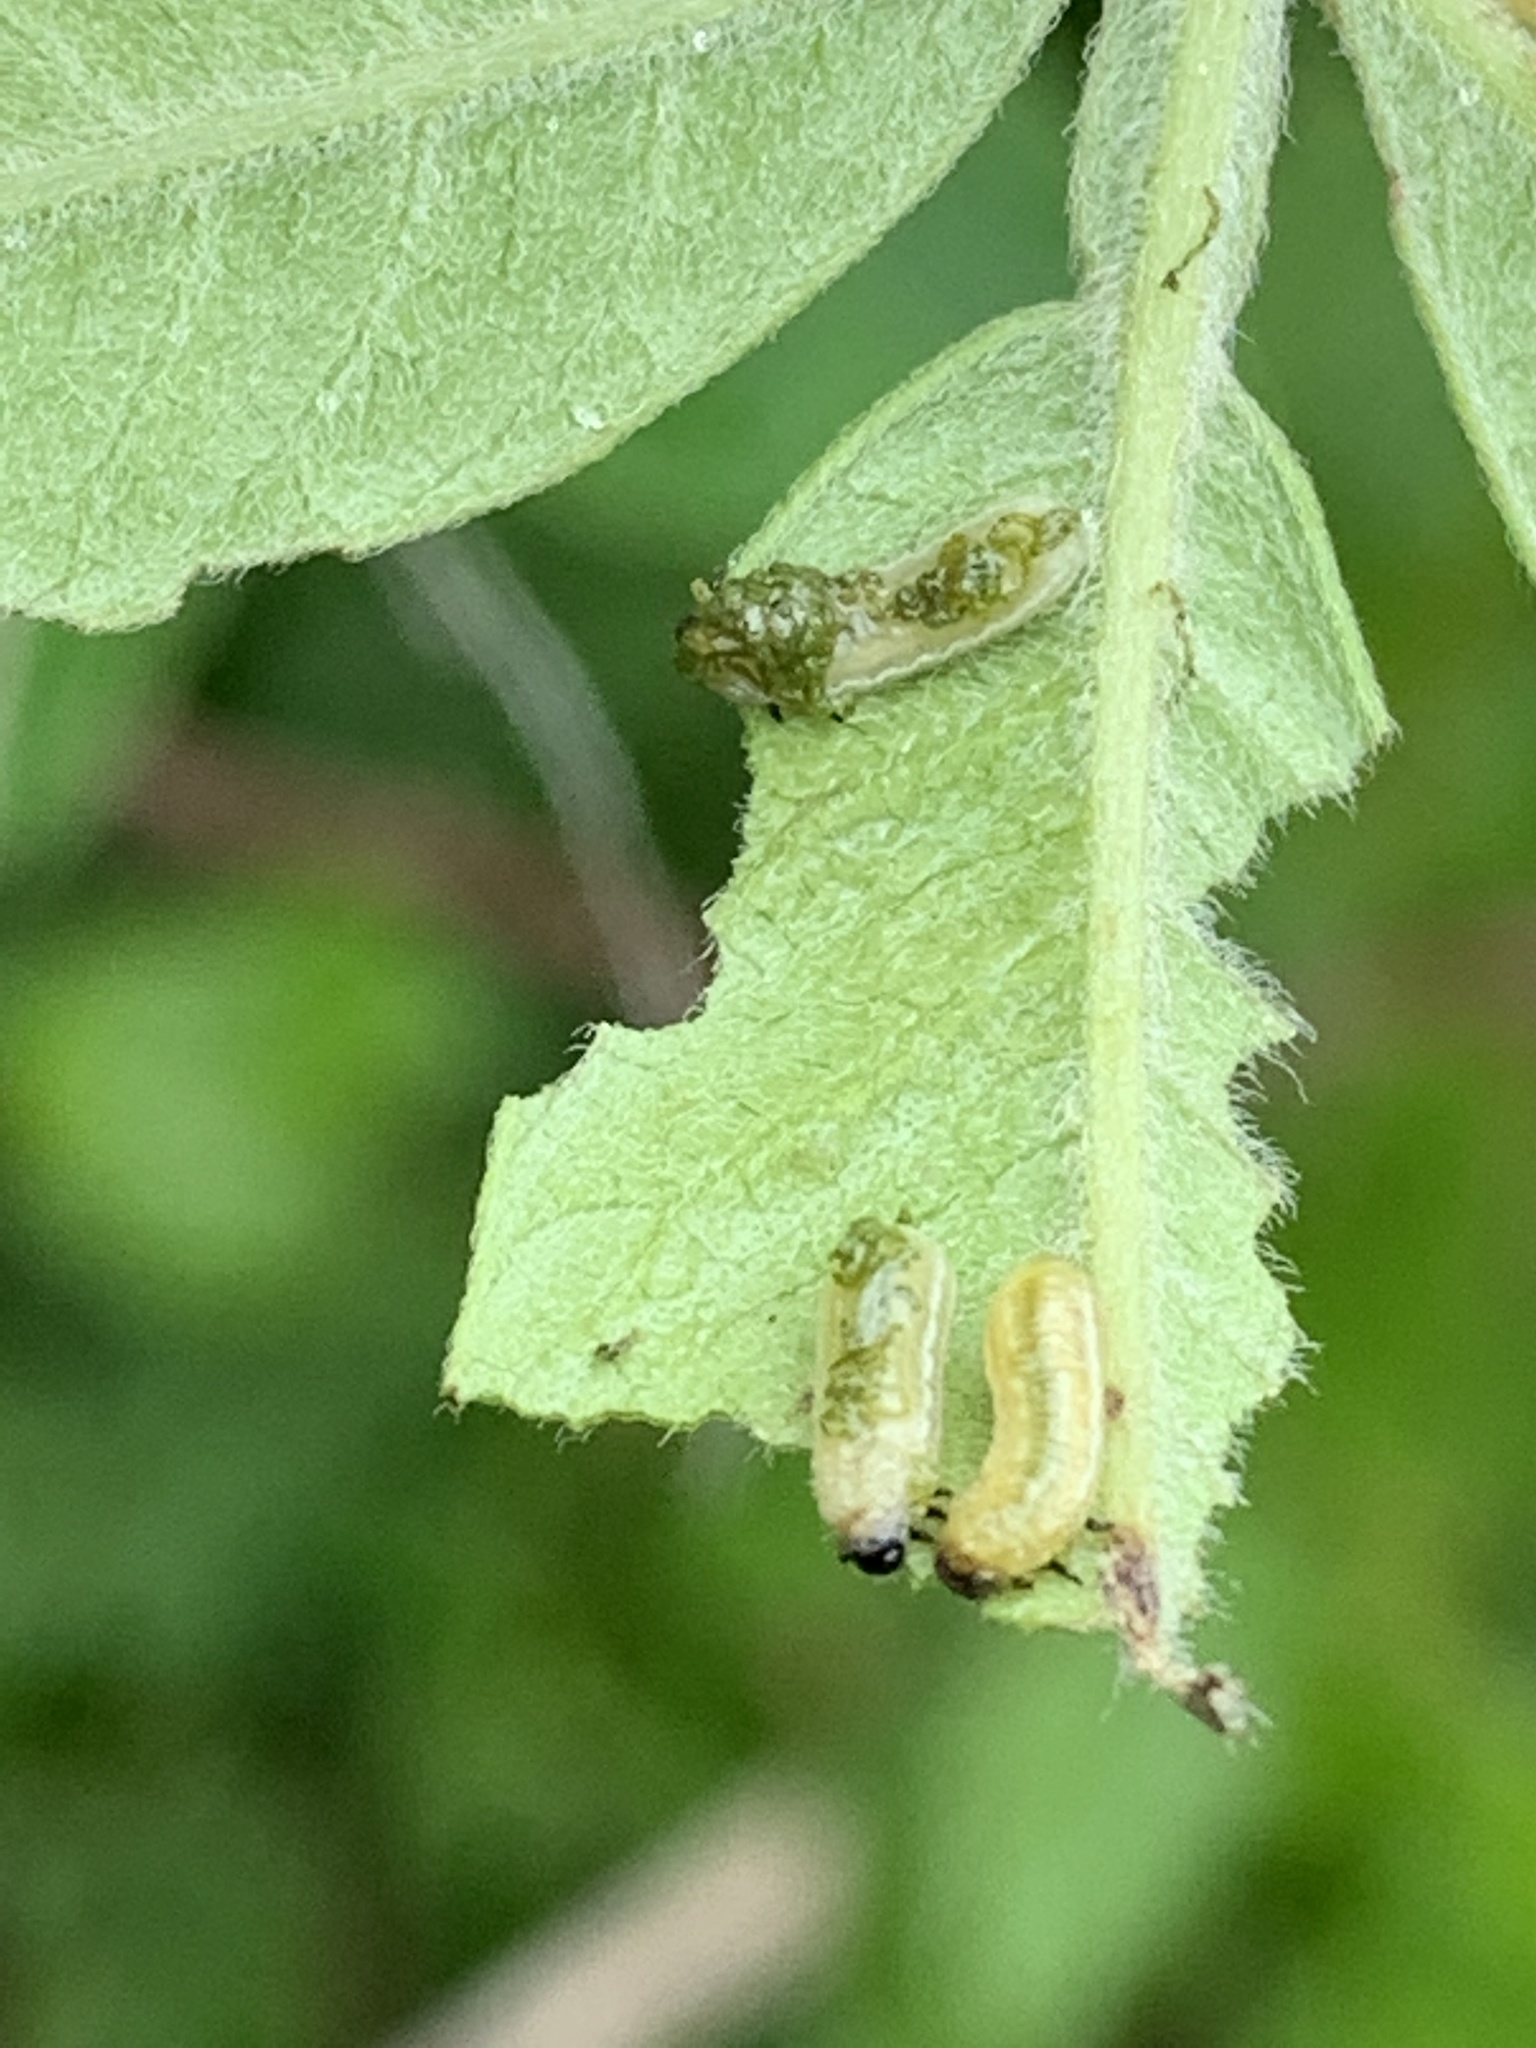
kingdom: Animalia
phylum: Arthropoda
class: Insecta
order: Coleoptera
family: Chrysomelidae
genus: Blepharida
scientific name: Blepharida rhois
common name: Sumac flea beetle
